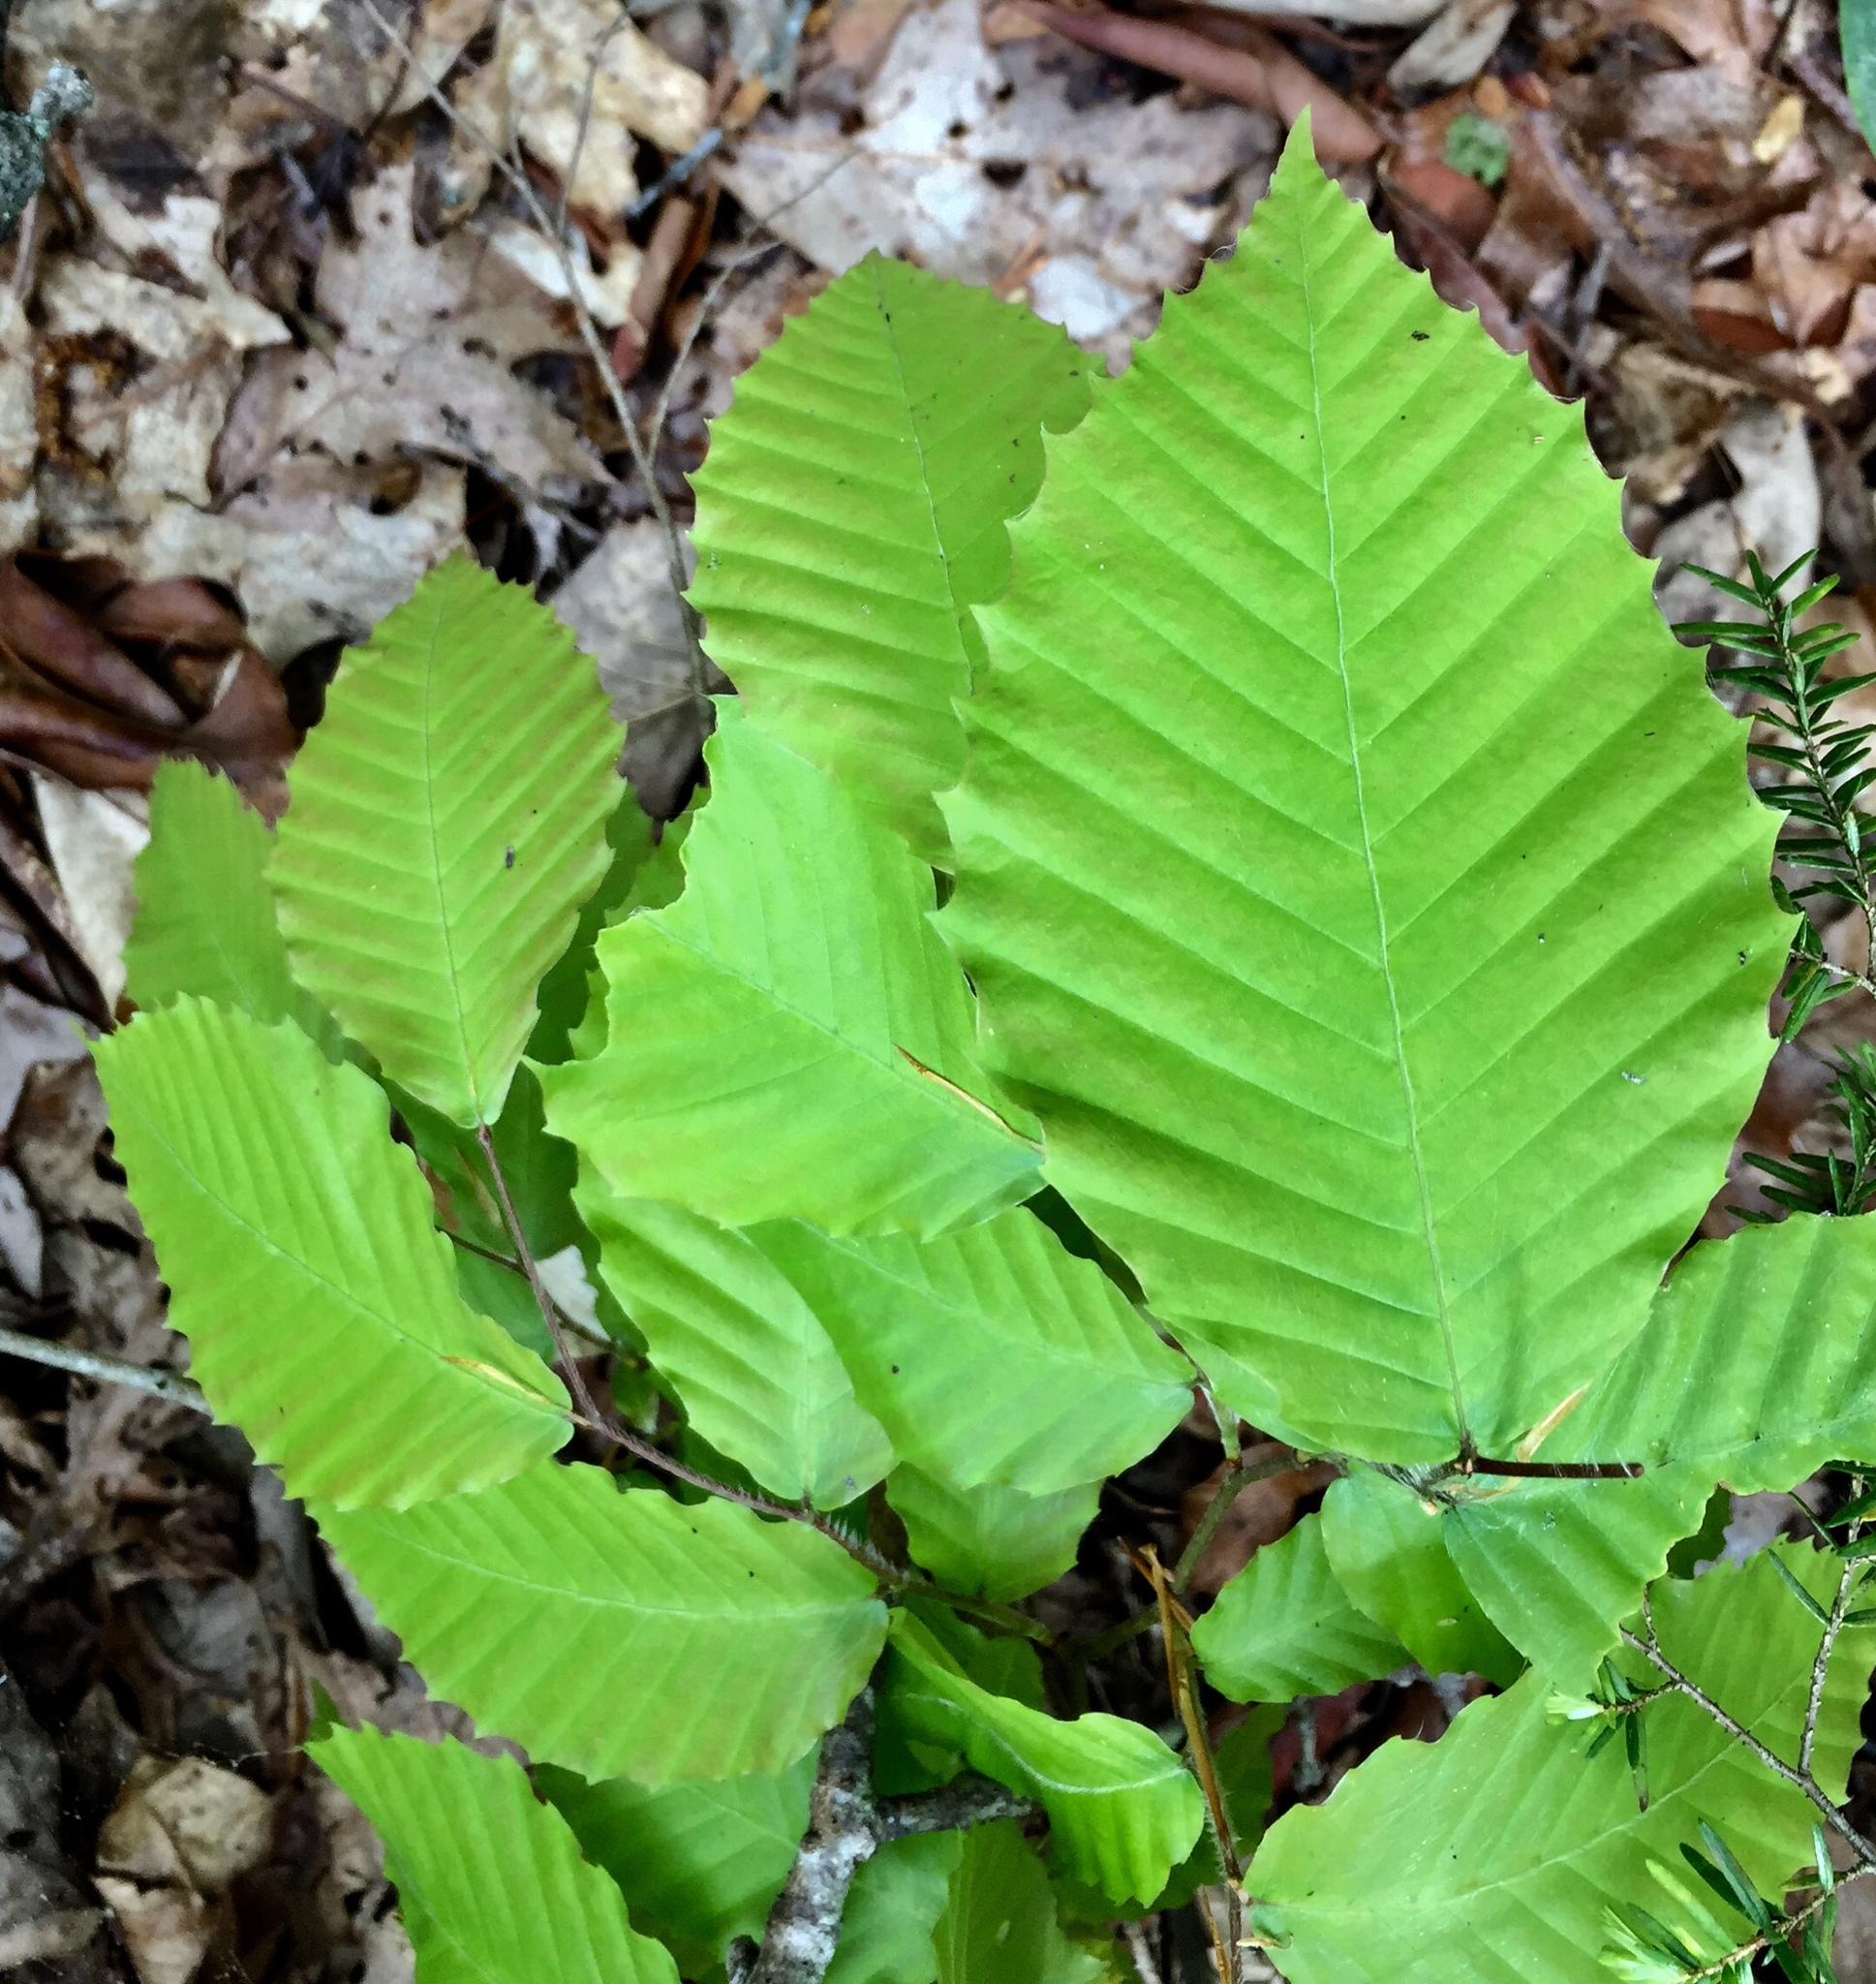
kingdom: Plantae
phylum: Tracheophyta
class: Magnoliopsida
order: Fagales
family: Fagaceae
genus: Fagus
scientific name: Fagus grandifolia
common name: American beech
